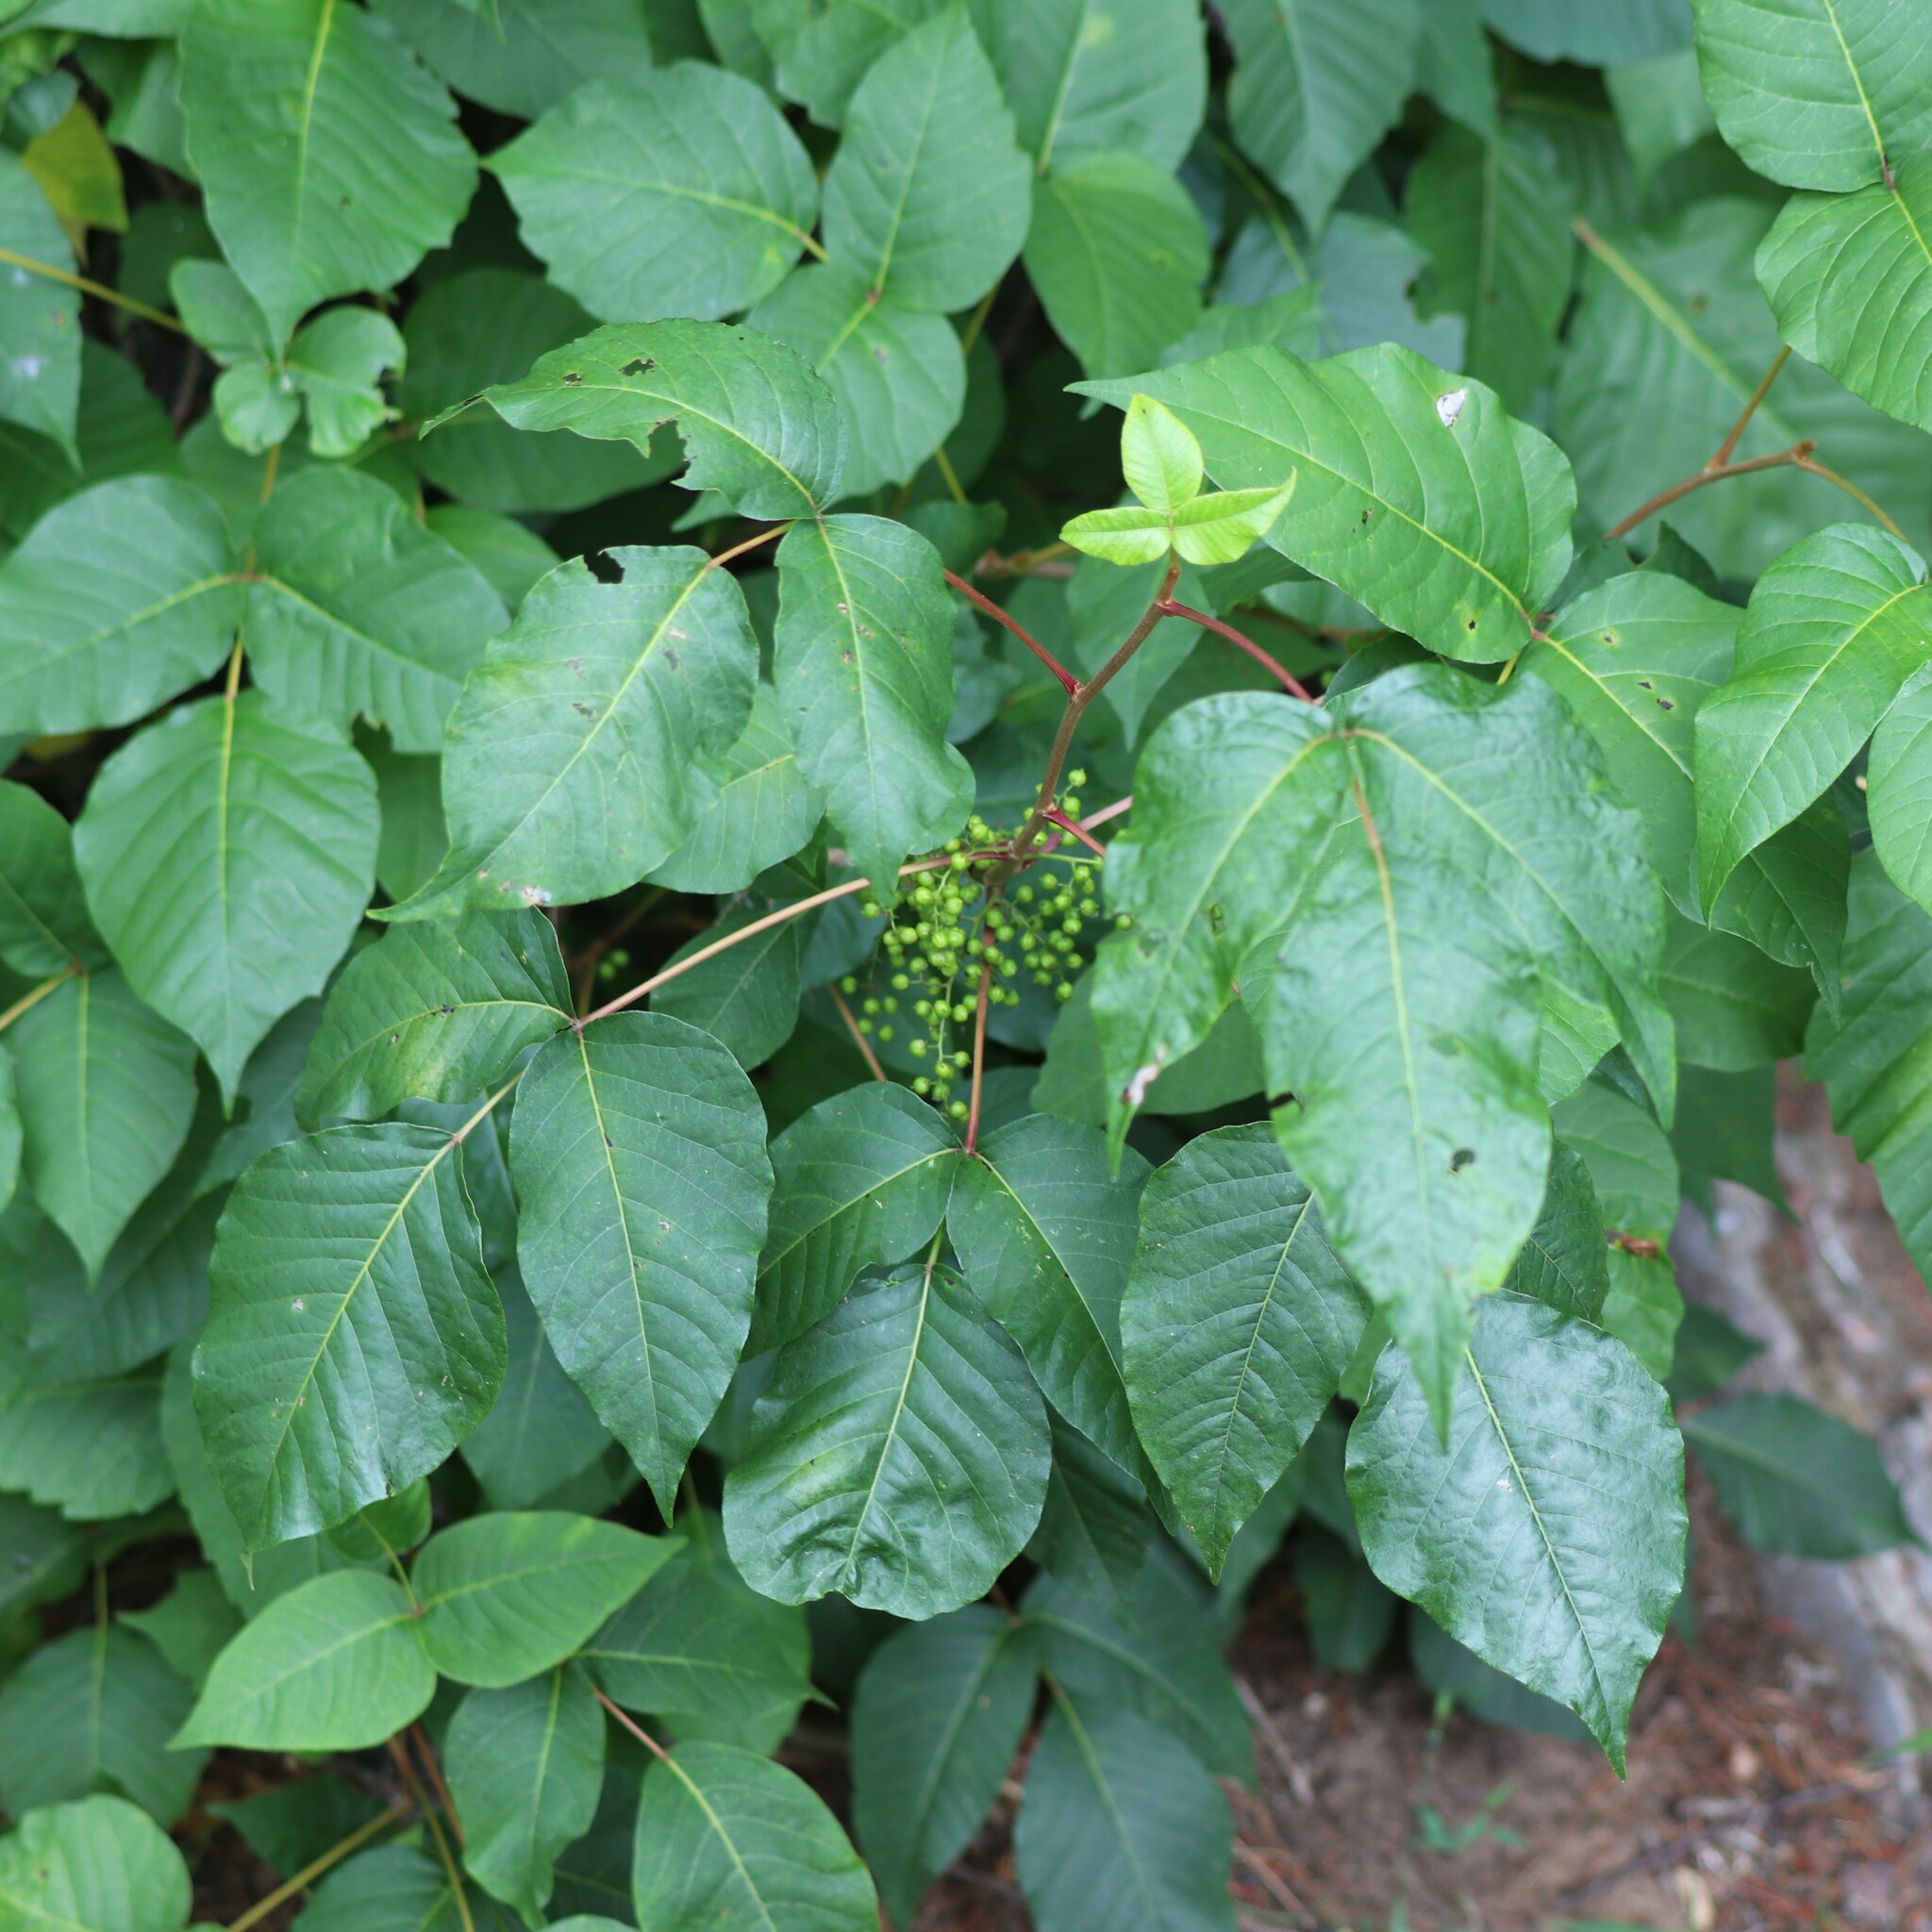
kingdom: Plantae
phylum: Tracheophyta
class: Magnoliopsida
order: Sapindales
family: Anacardiaceae
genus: Toxicodendron
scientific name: Toxicodendron radicans
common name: Poison ivy
